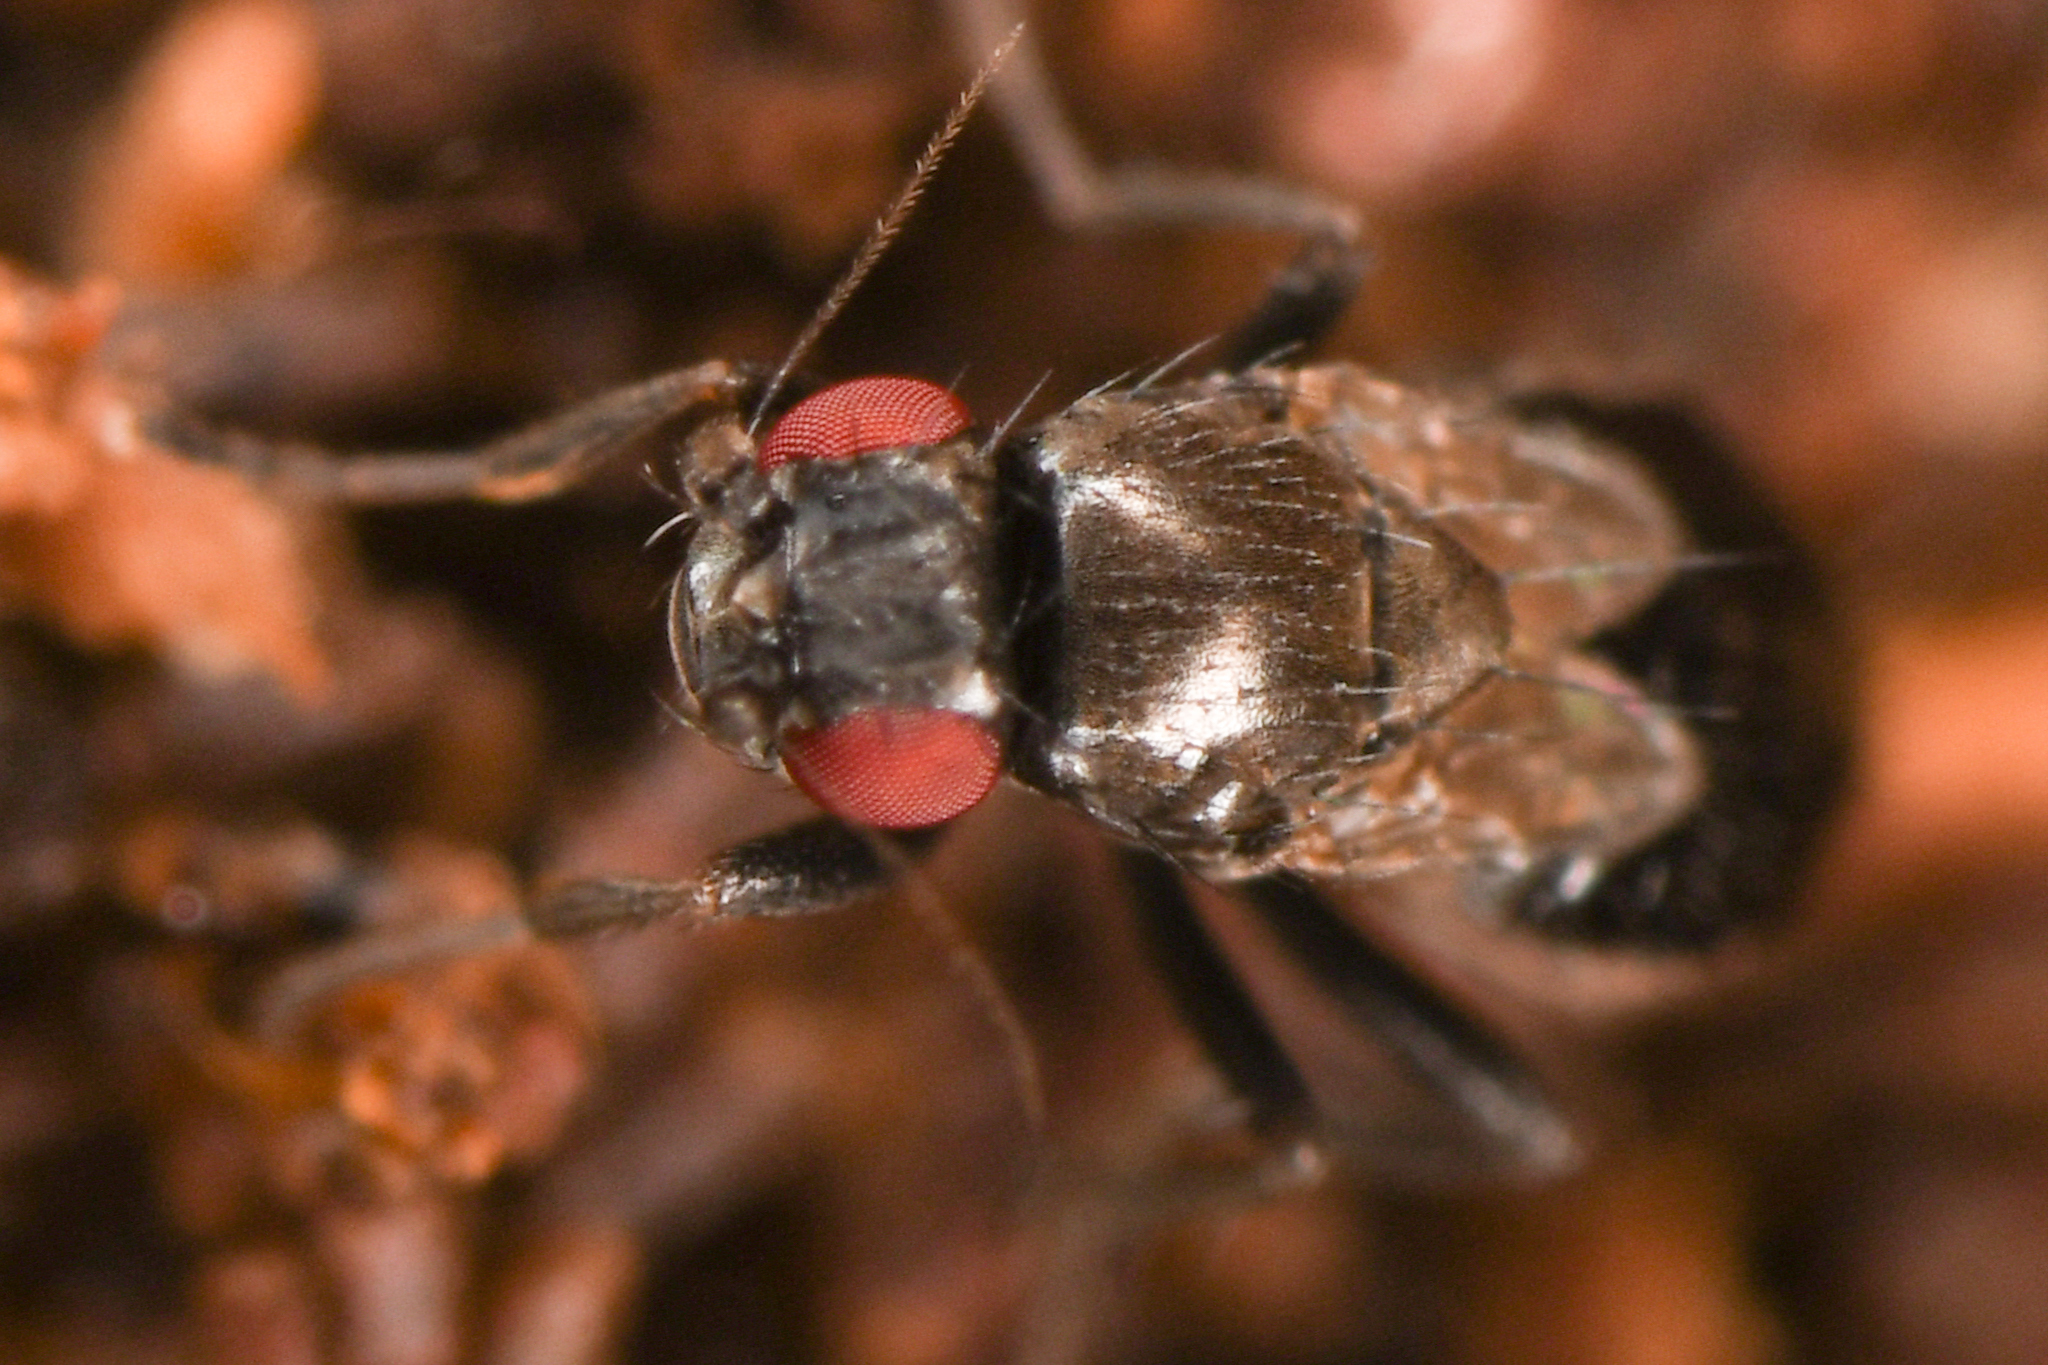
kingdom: Animalia
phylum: Arthropoda
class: Insecta
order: Diptera
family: Sphaeroceridae
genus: Aptilotus
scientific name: Aptilotus parvipennis
